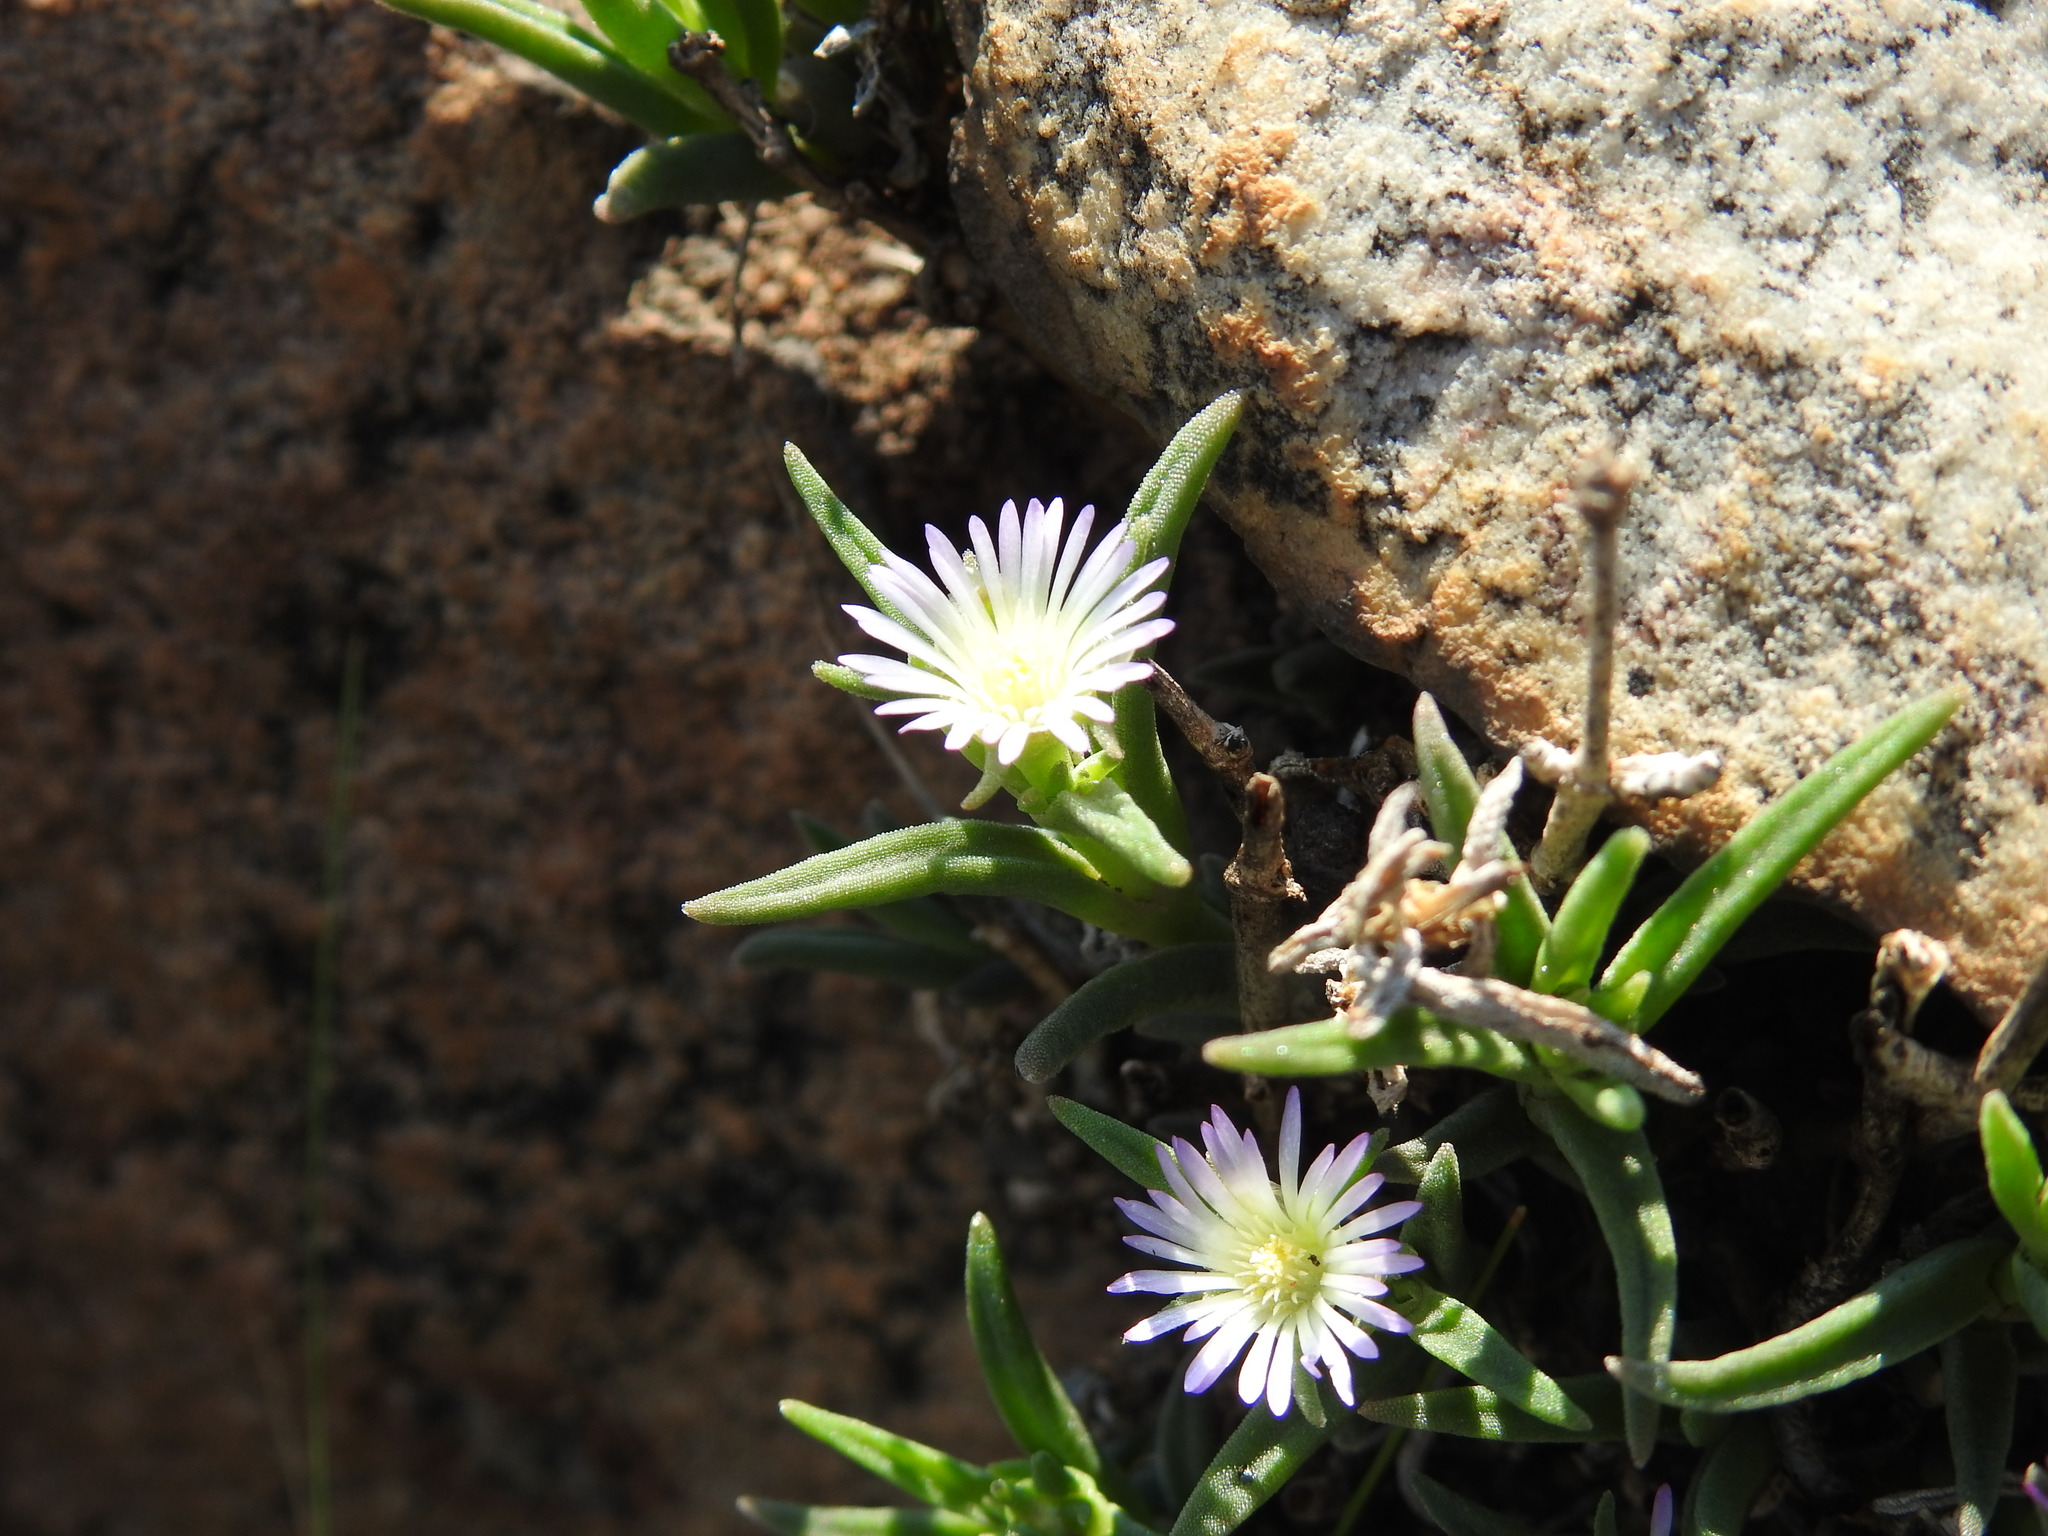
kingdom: Plantae
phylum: Tracheophyta
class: Magnoliopsida
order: Caryophyllales
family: Aizoaceae
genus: Delosperma
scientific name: Delosperma herbeum
